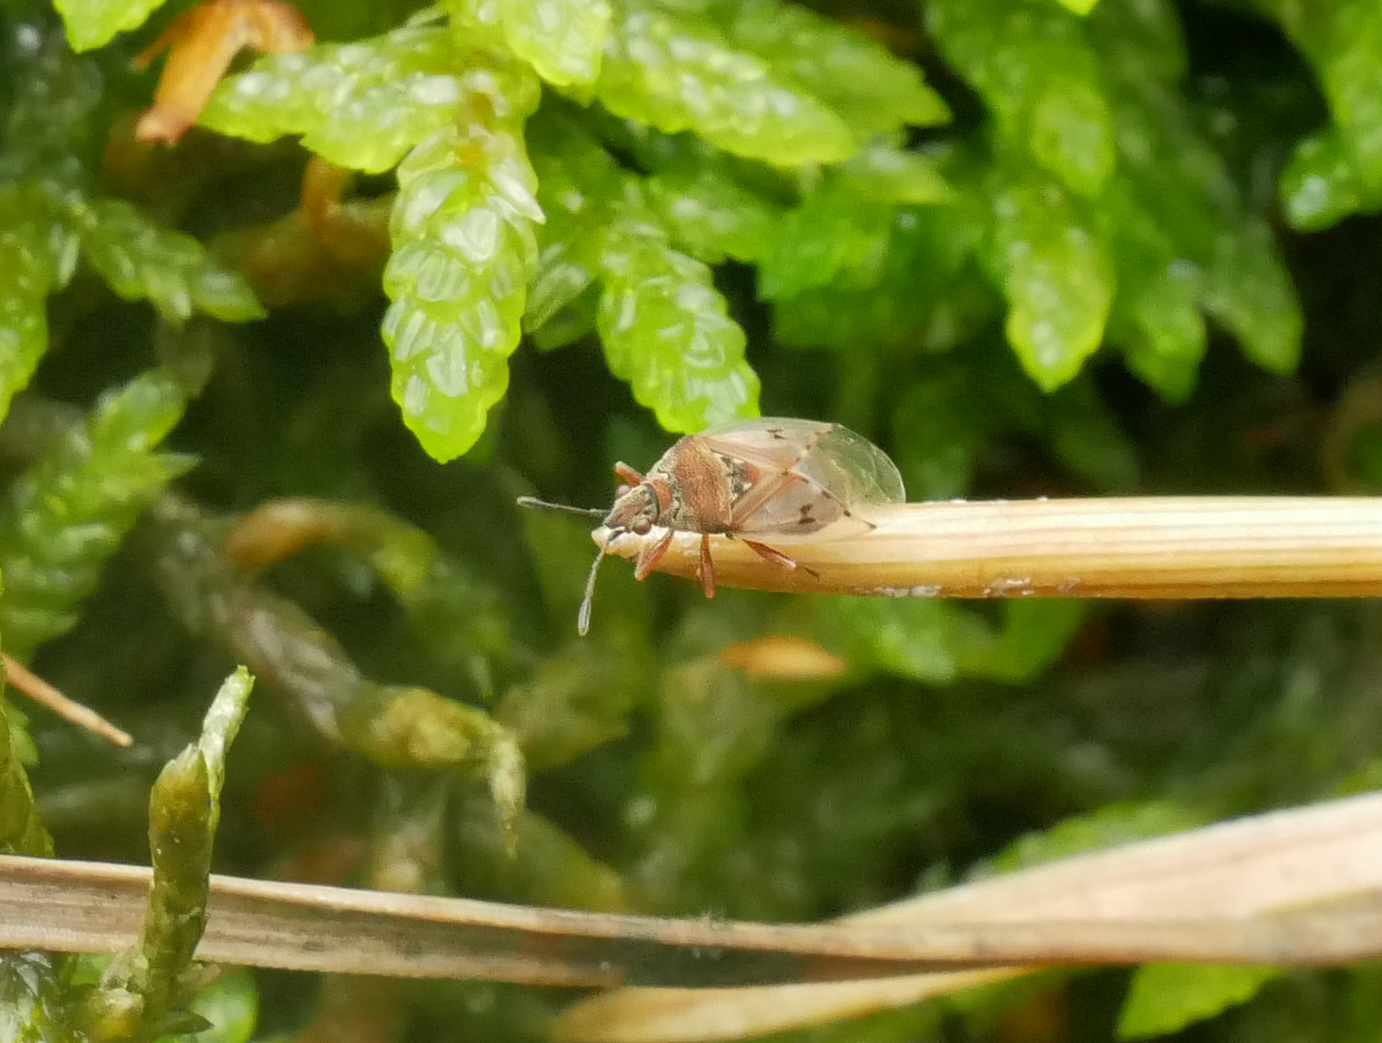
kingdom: Animalia
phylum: Arthropoda
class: Insecta
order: Hemiptera
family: Lygaeidae
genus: Kleidocerys
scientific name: Kleidocerys resedae
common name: Birch catkin bug
